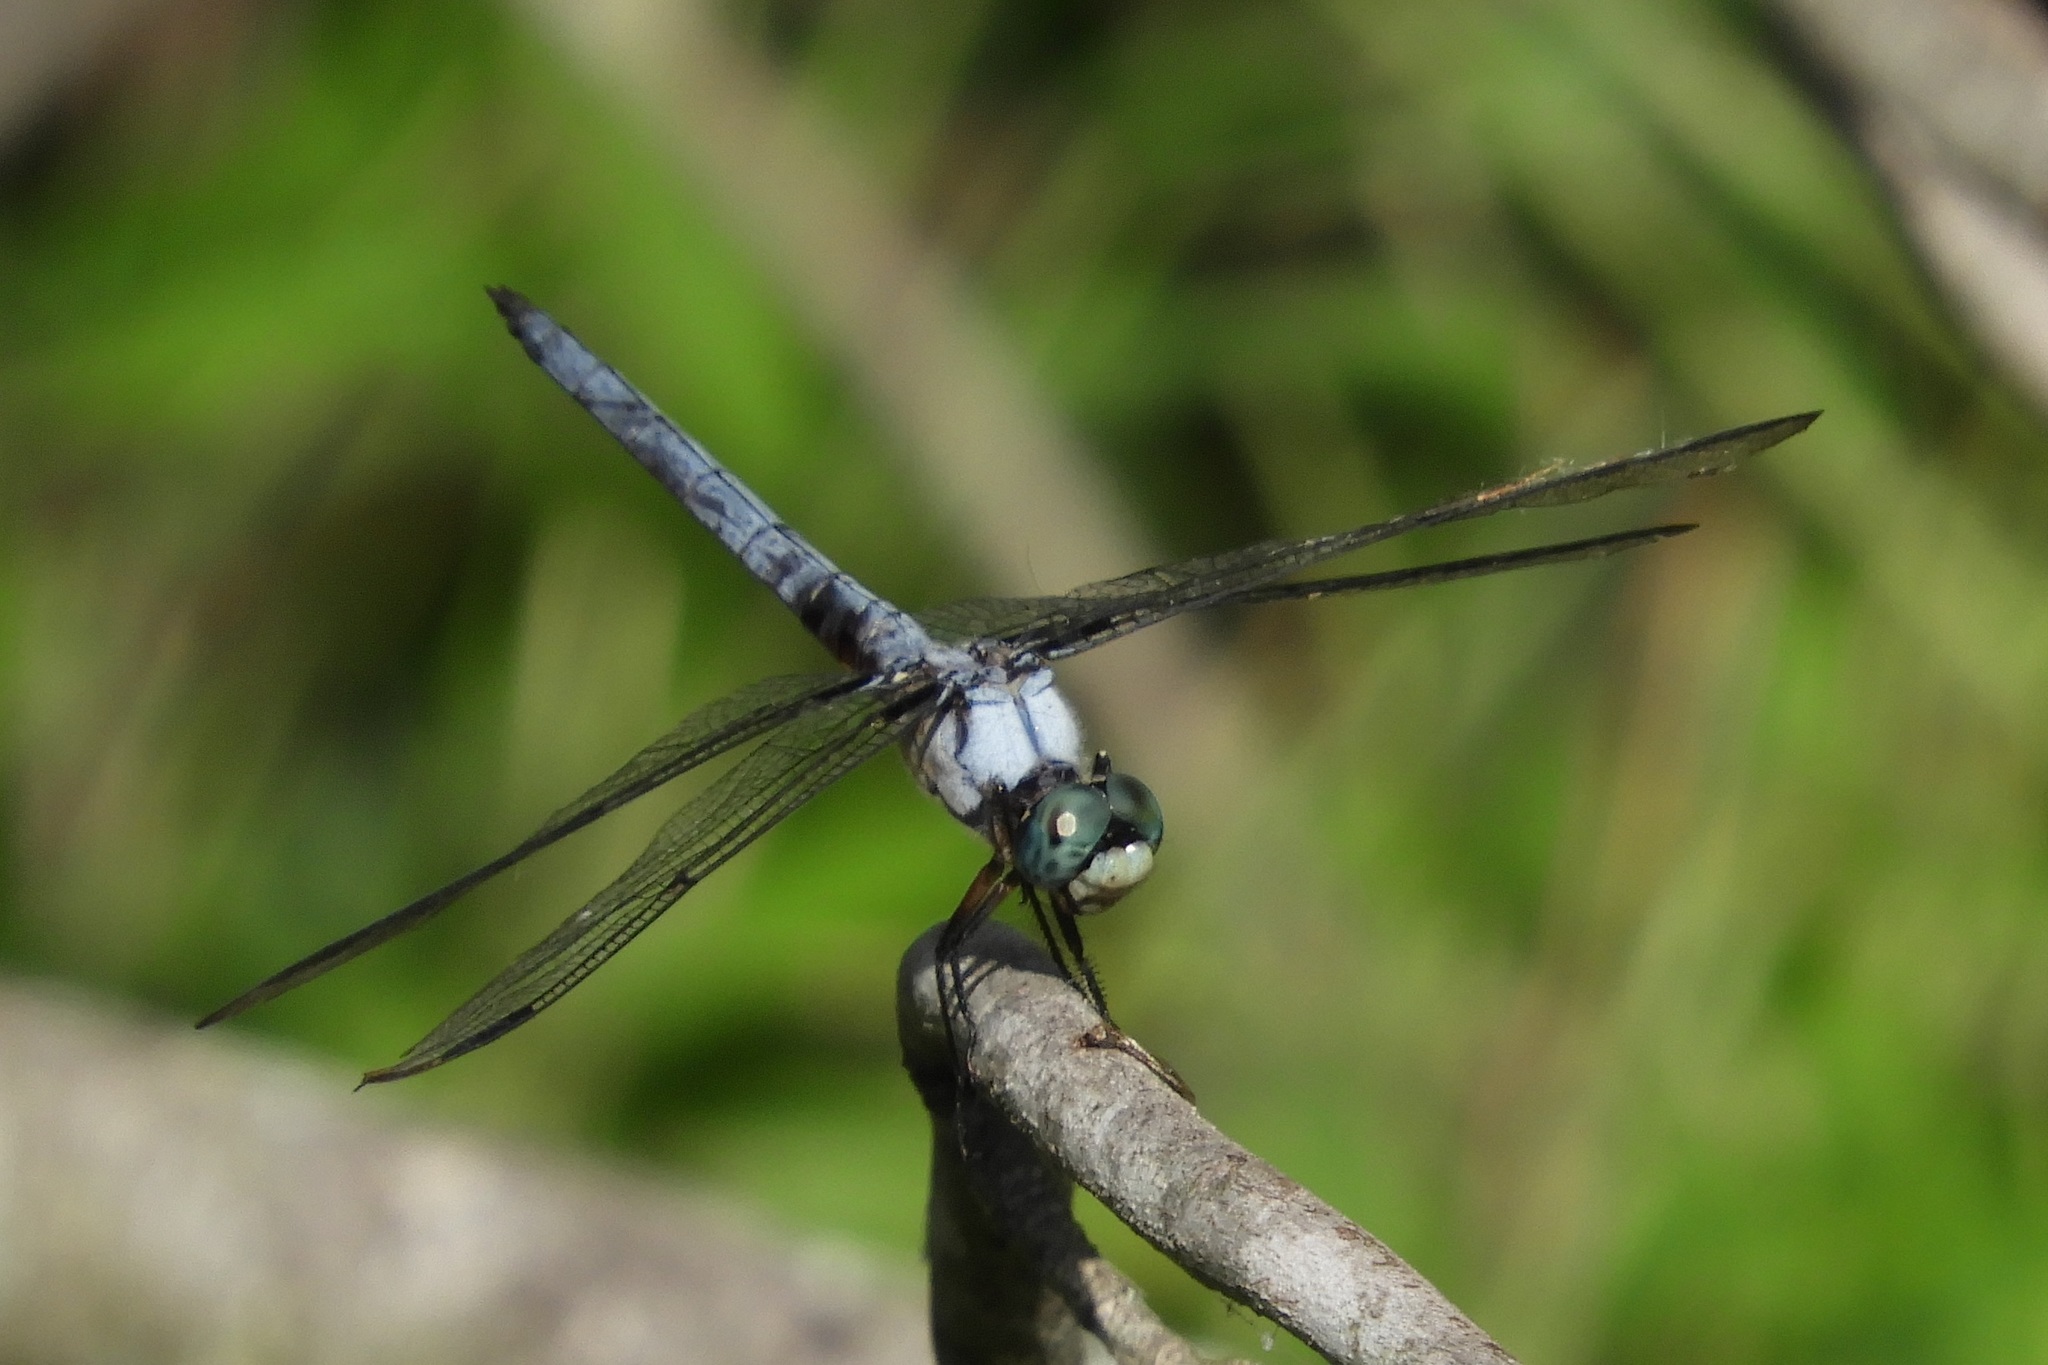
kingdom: Animalia
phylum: Arthropoda
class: Insecta
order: Odonata
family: Libellulidae
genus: Libellula
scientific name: Libellula vibrans
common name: Great blue skimmer
